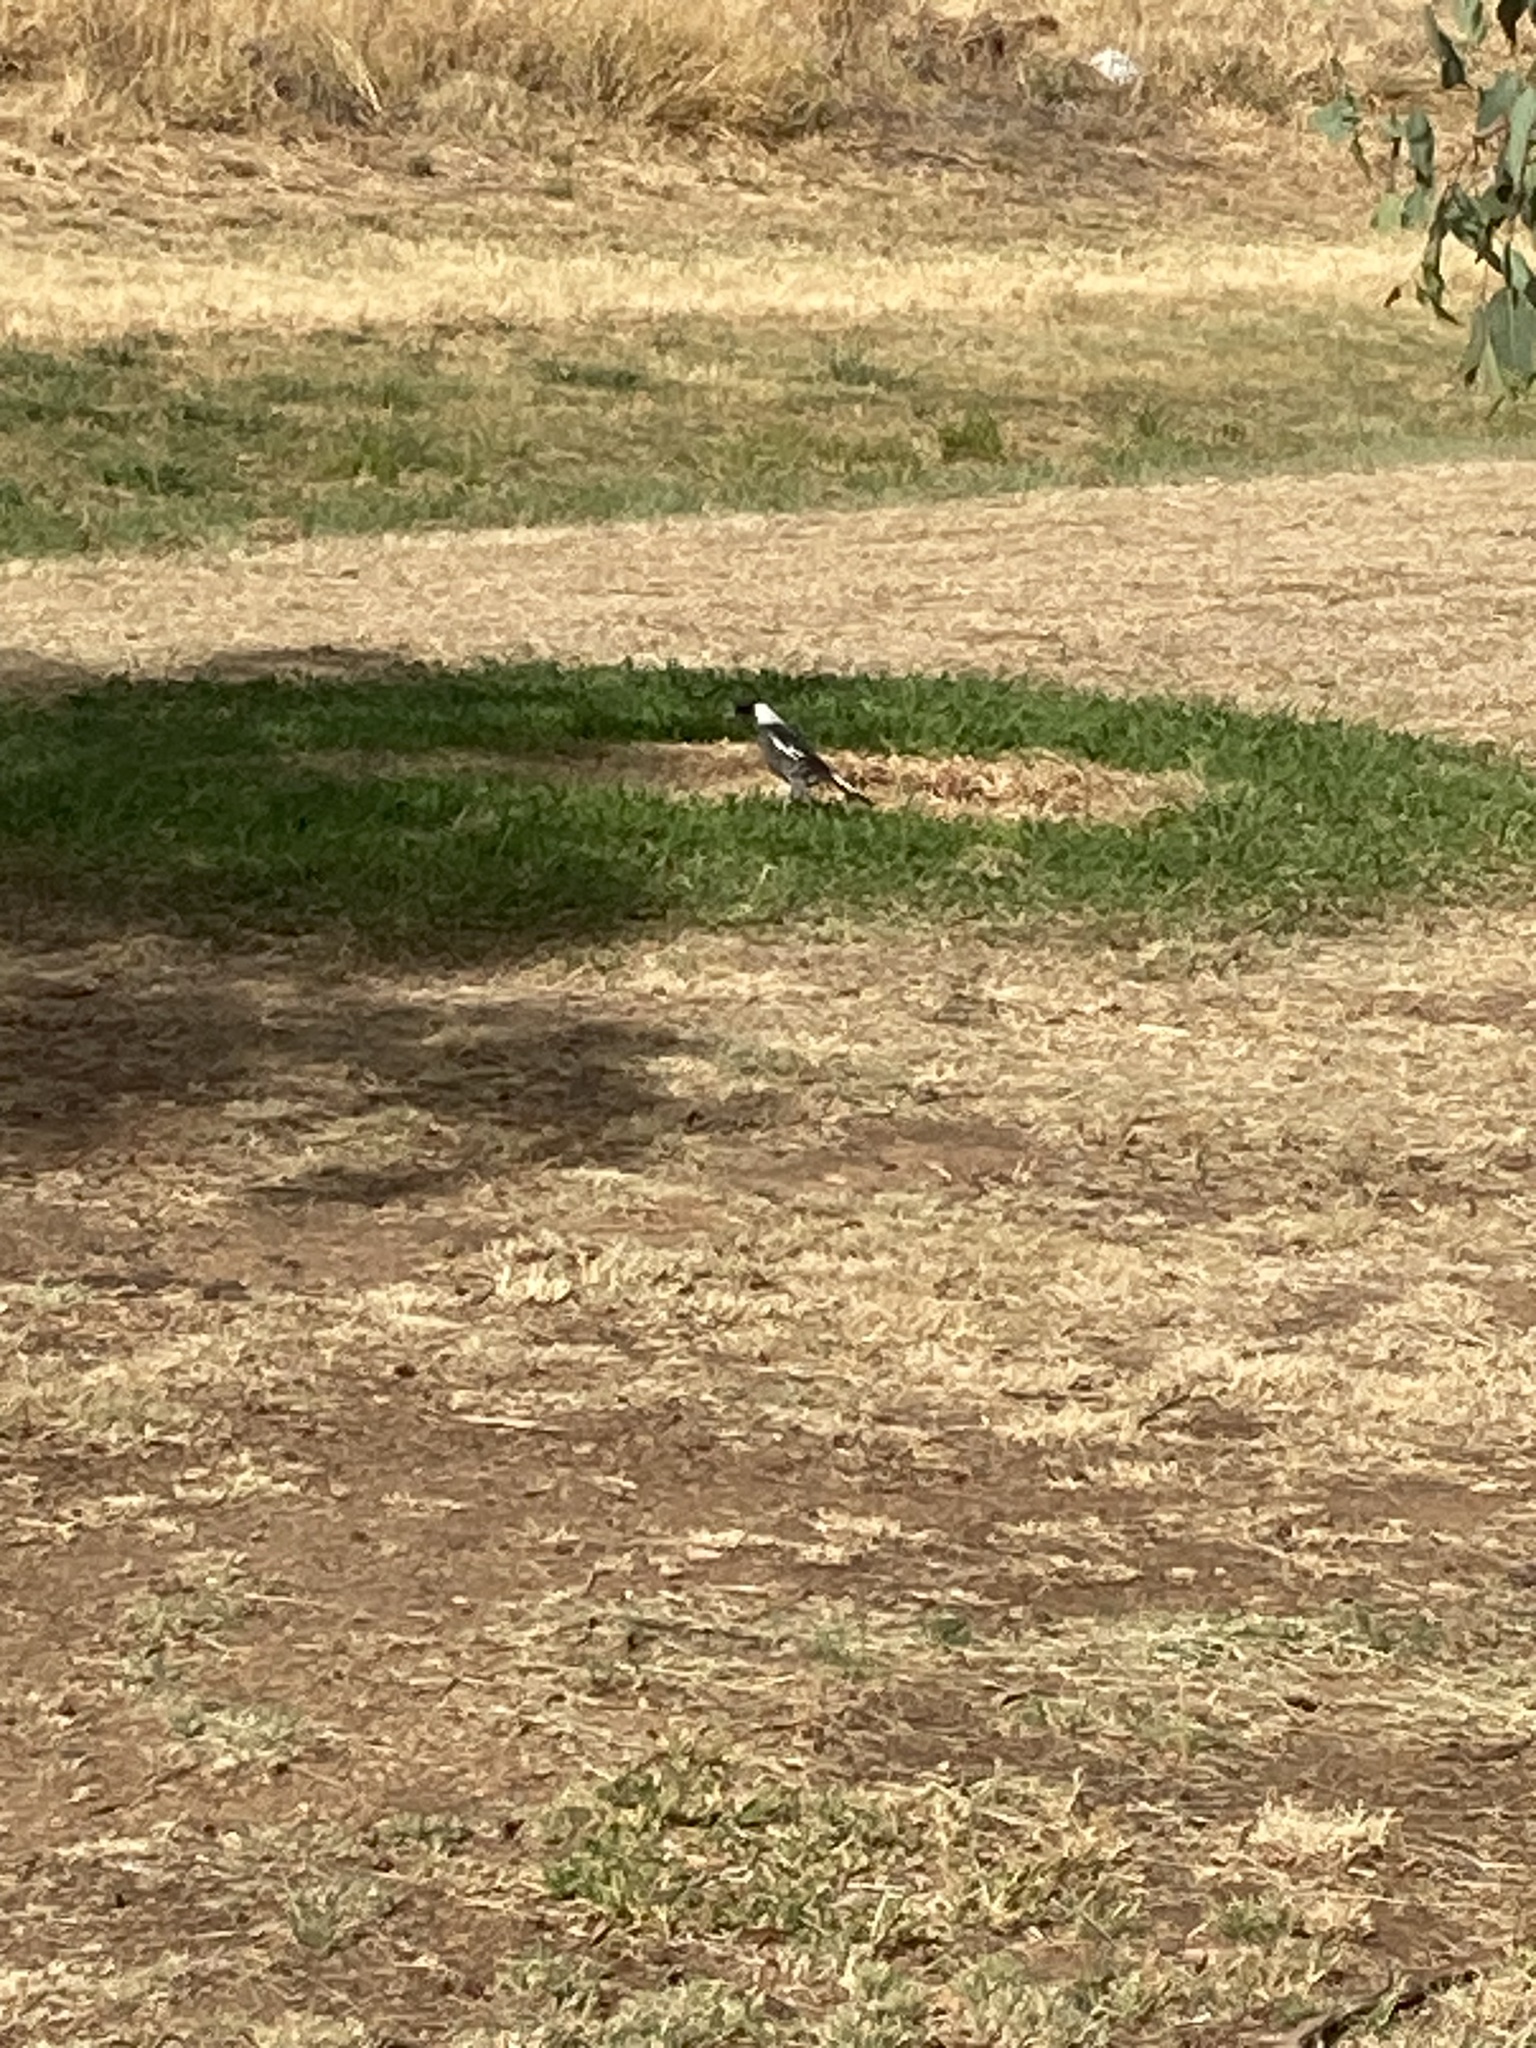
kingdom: Animalia
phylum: Chordata
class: Aves
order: Passeriformes
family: Cracticidae
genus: Gymnorhina
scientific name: Gymnorhina tibicen
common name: Australian magpie
